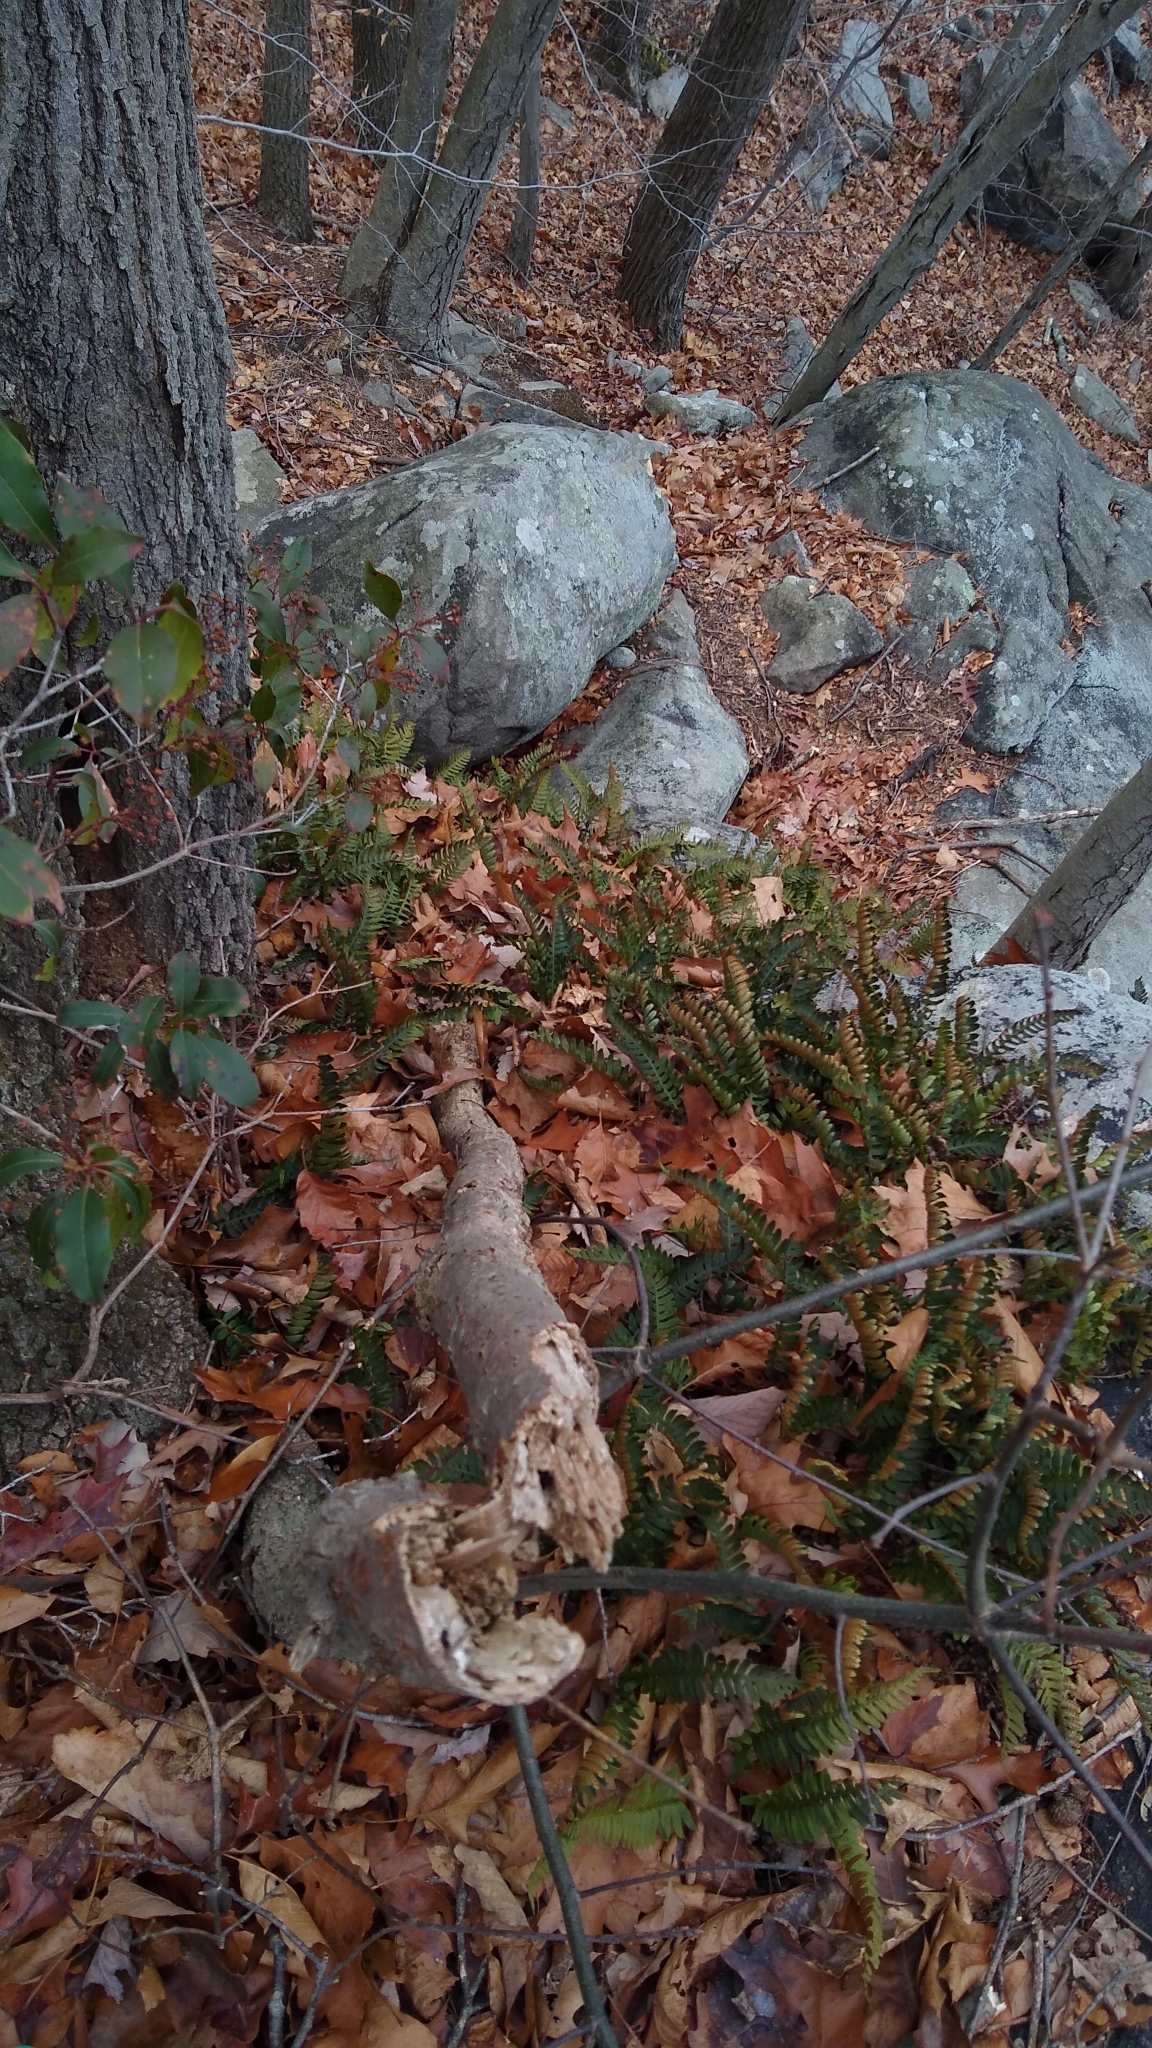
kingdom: Plantae
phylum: Tracheophyta
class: Polypodiopsida
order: Polypodiales
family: Polypodiaceae
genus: Polypodium
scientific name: Polypodium virginianum
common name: American wall fern
